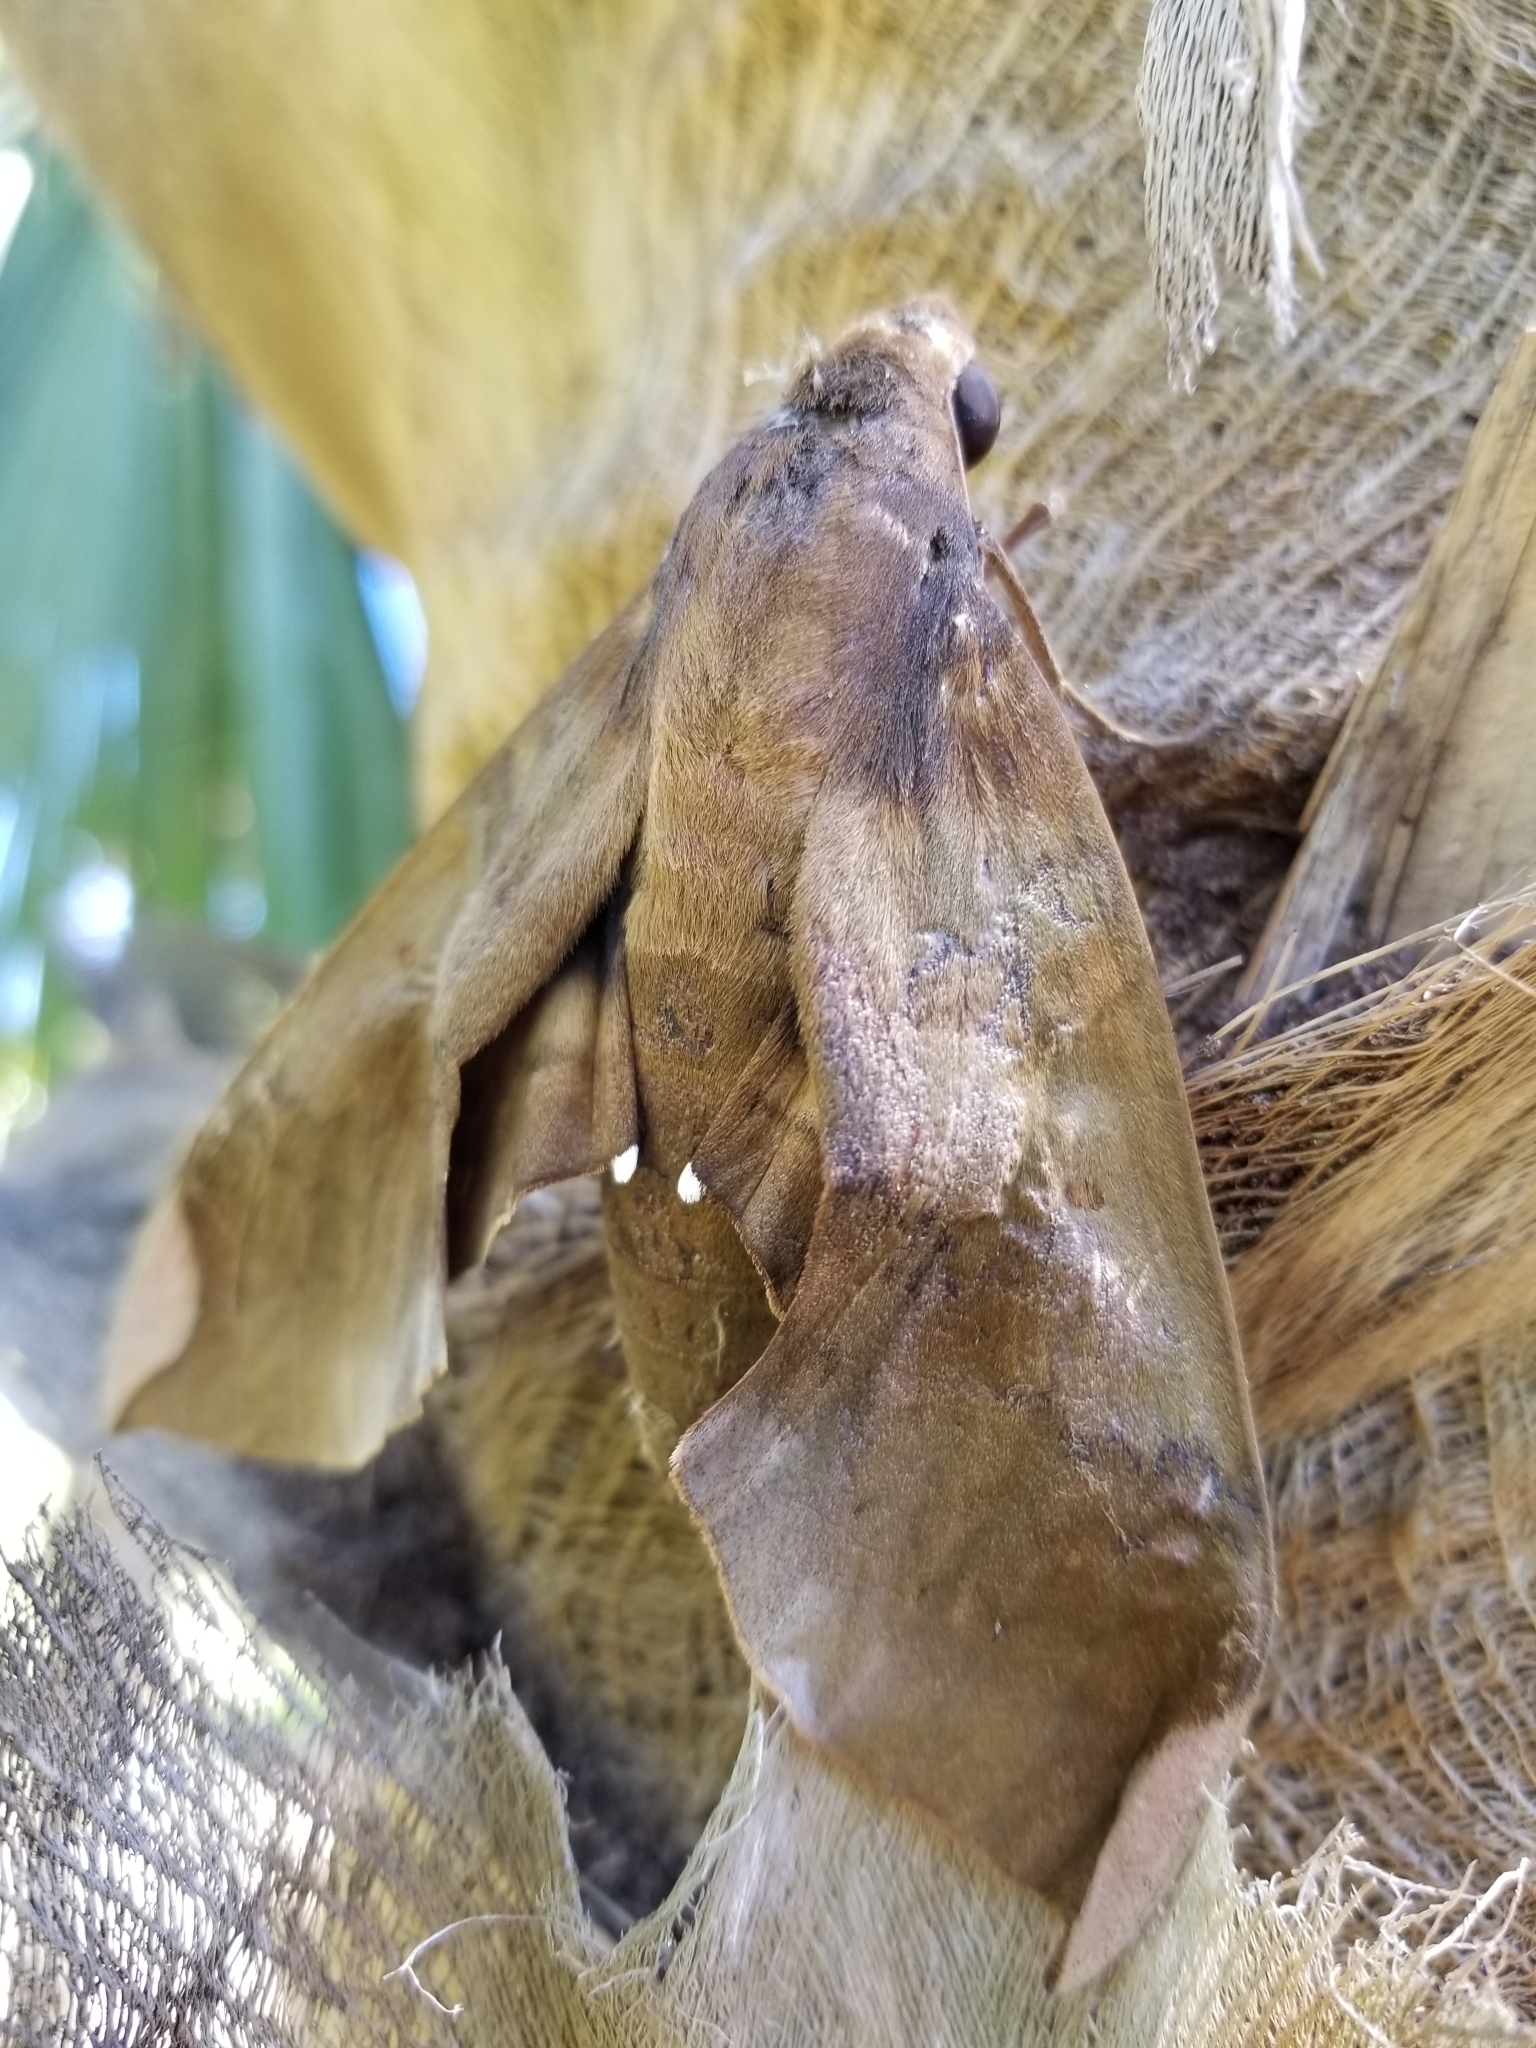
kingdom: Animalia
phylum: Arthropoda
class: Insecta
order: Lepidoptera
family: Sphingidae
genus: Pachylia
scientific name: Pachylia ficus
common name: Fig sphinx
